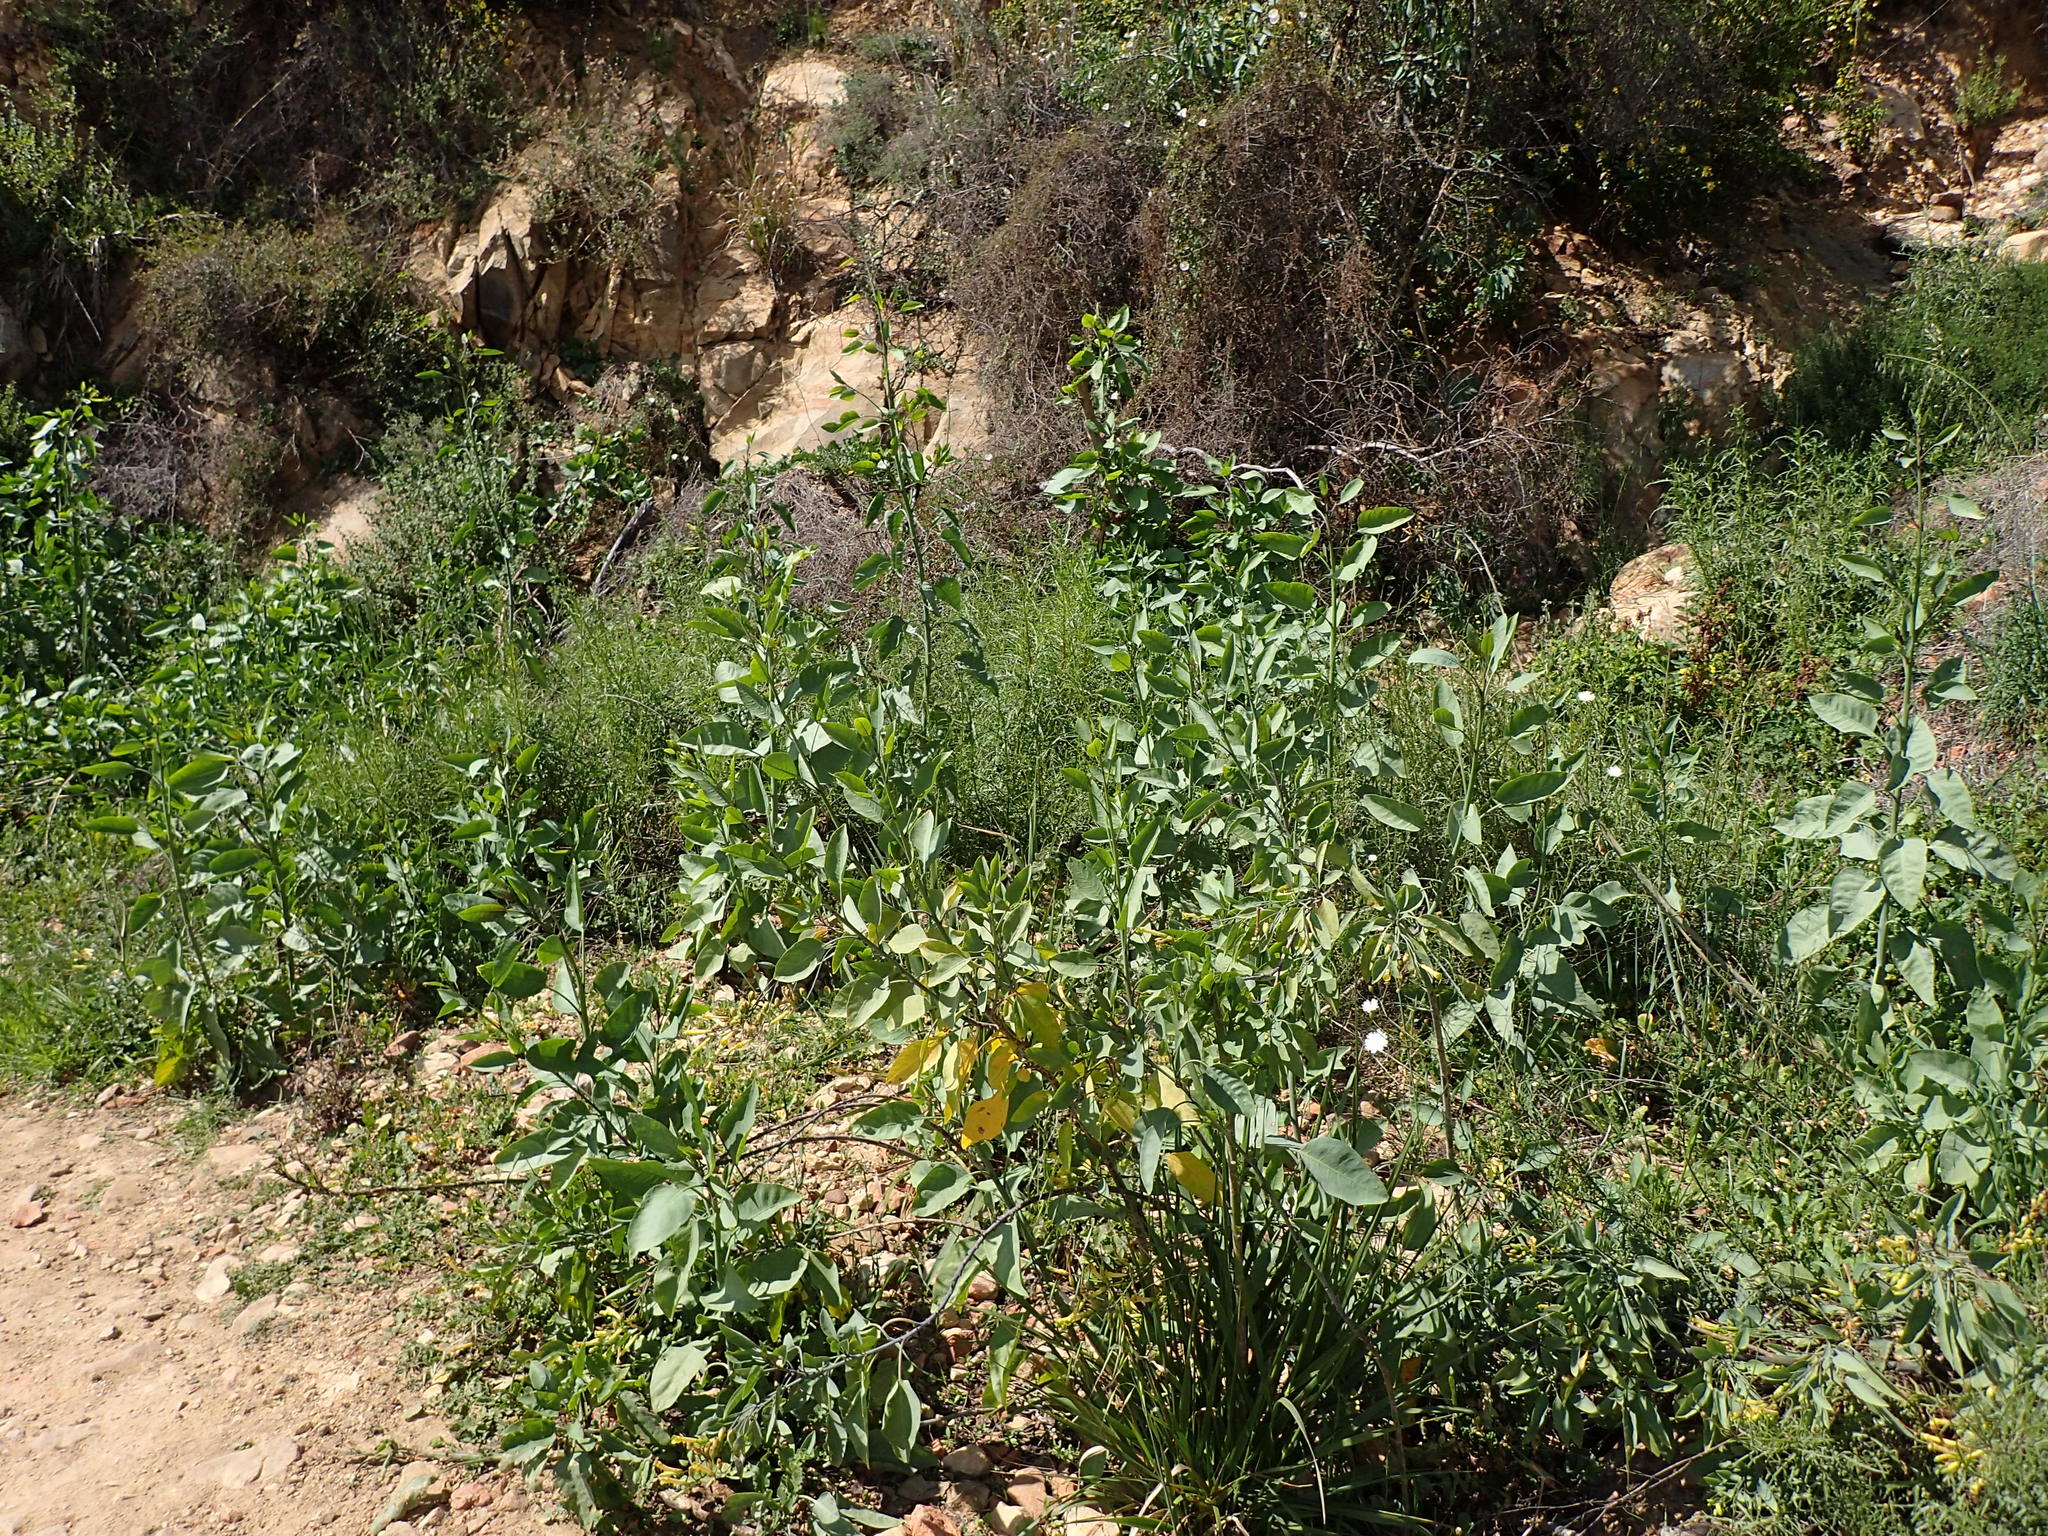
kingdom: Plantae
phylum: Tracheophyta
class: Magnoliopsida
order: Solanales
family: Solanaceae
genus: Nicotiana
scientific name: Nicotiana glauca
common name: Tree tobacco
